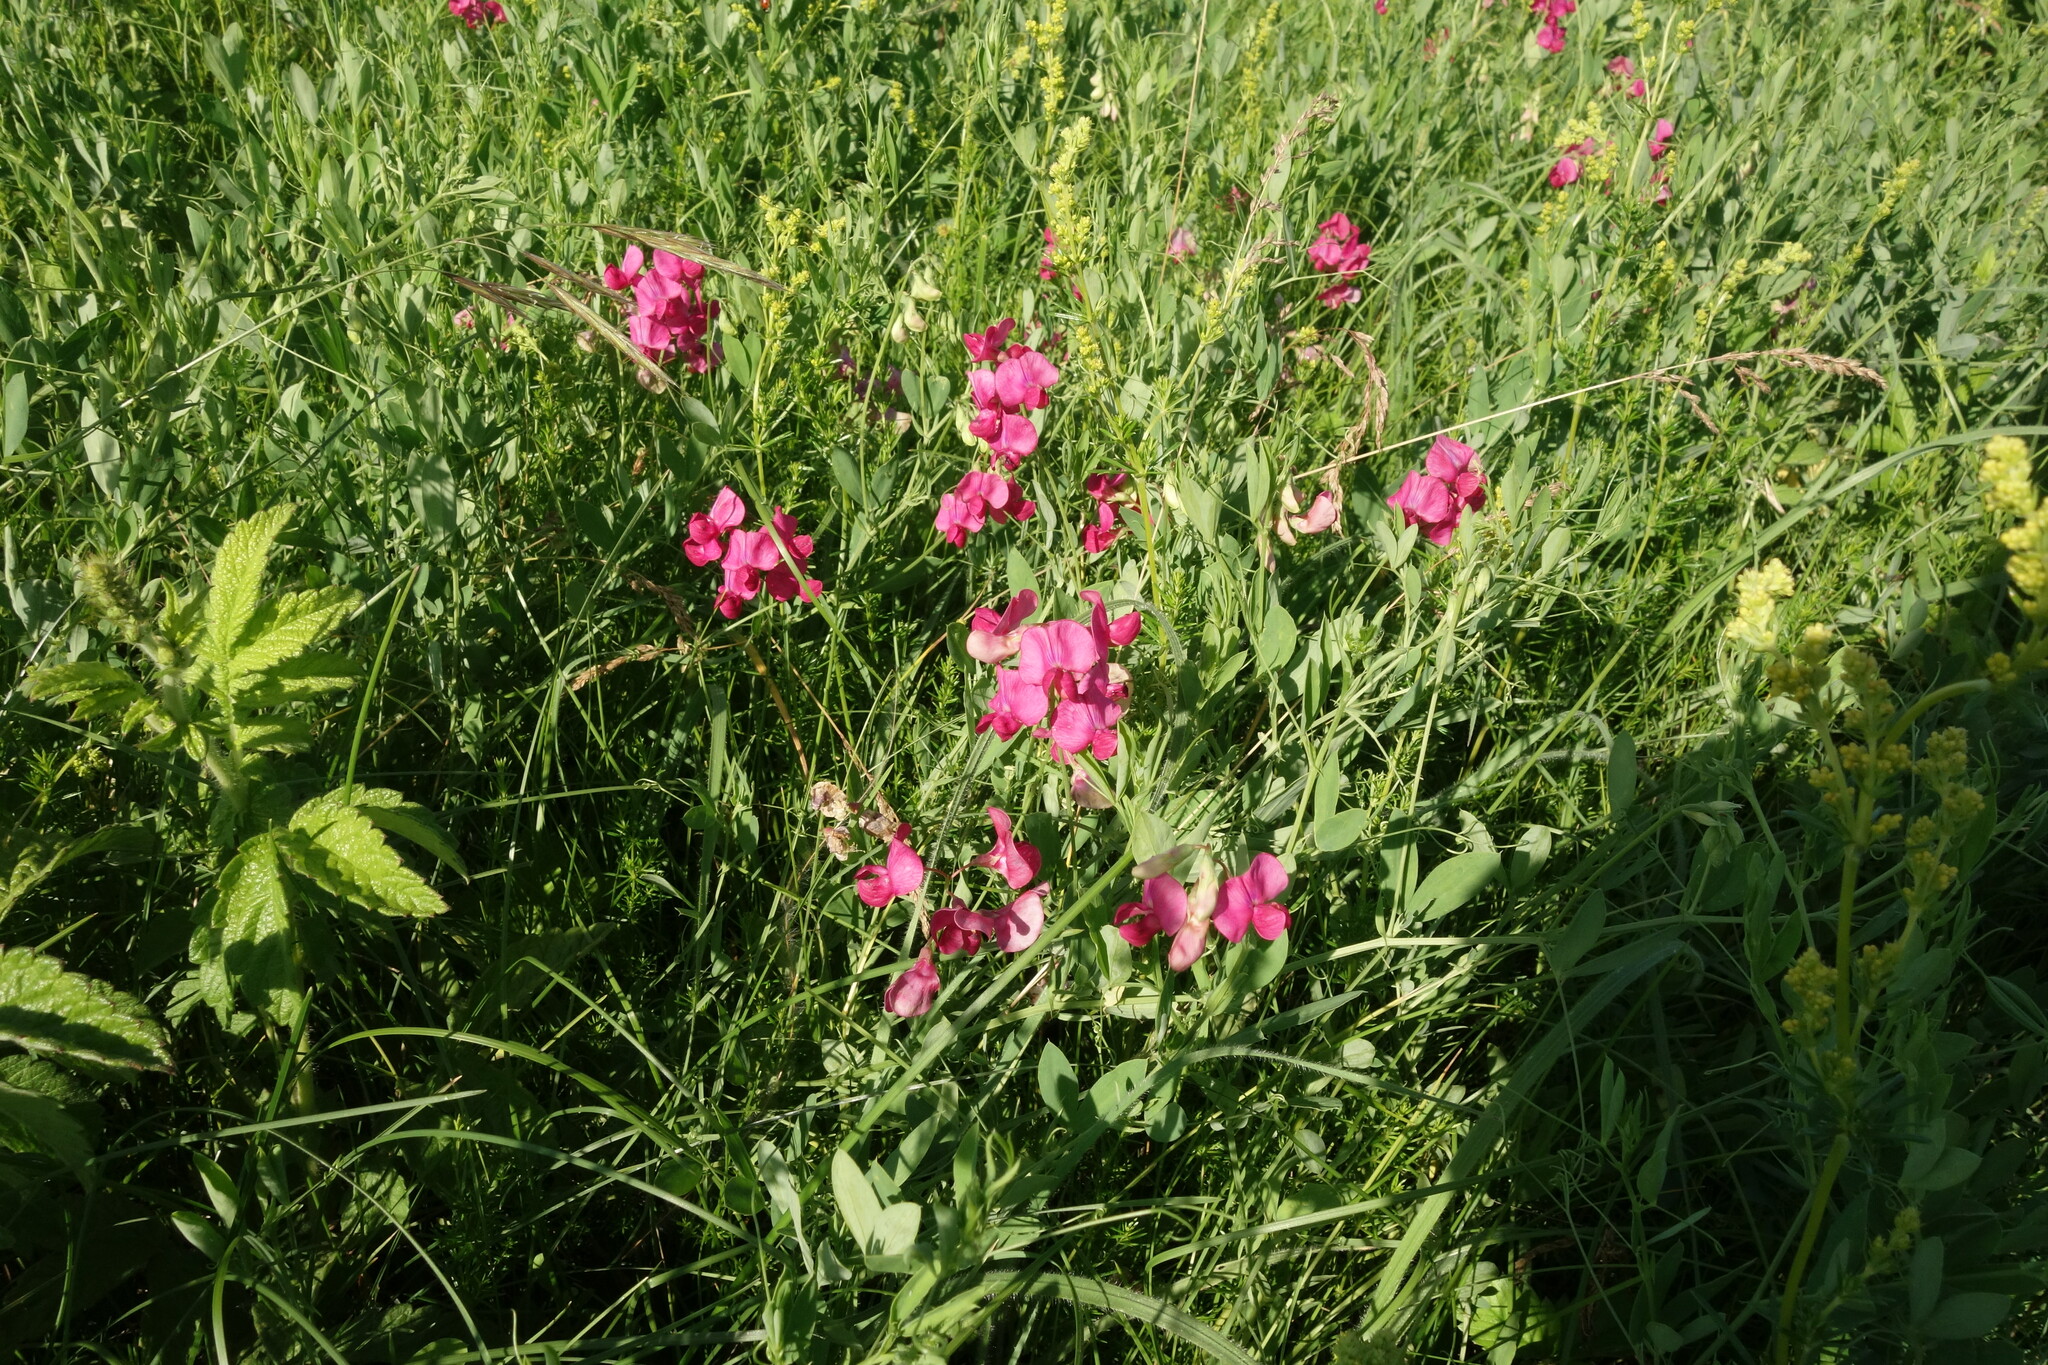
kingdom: Plantae
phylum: Tracheophyta
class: Magnoliopsida
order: Fabales
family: Fabaceae
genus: Lathyrus
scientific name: Lathyrus tuberosus
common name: Tuberous pea
